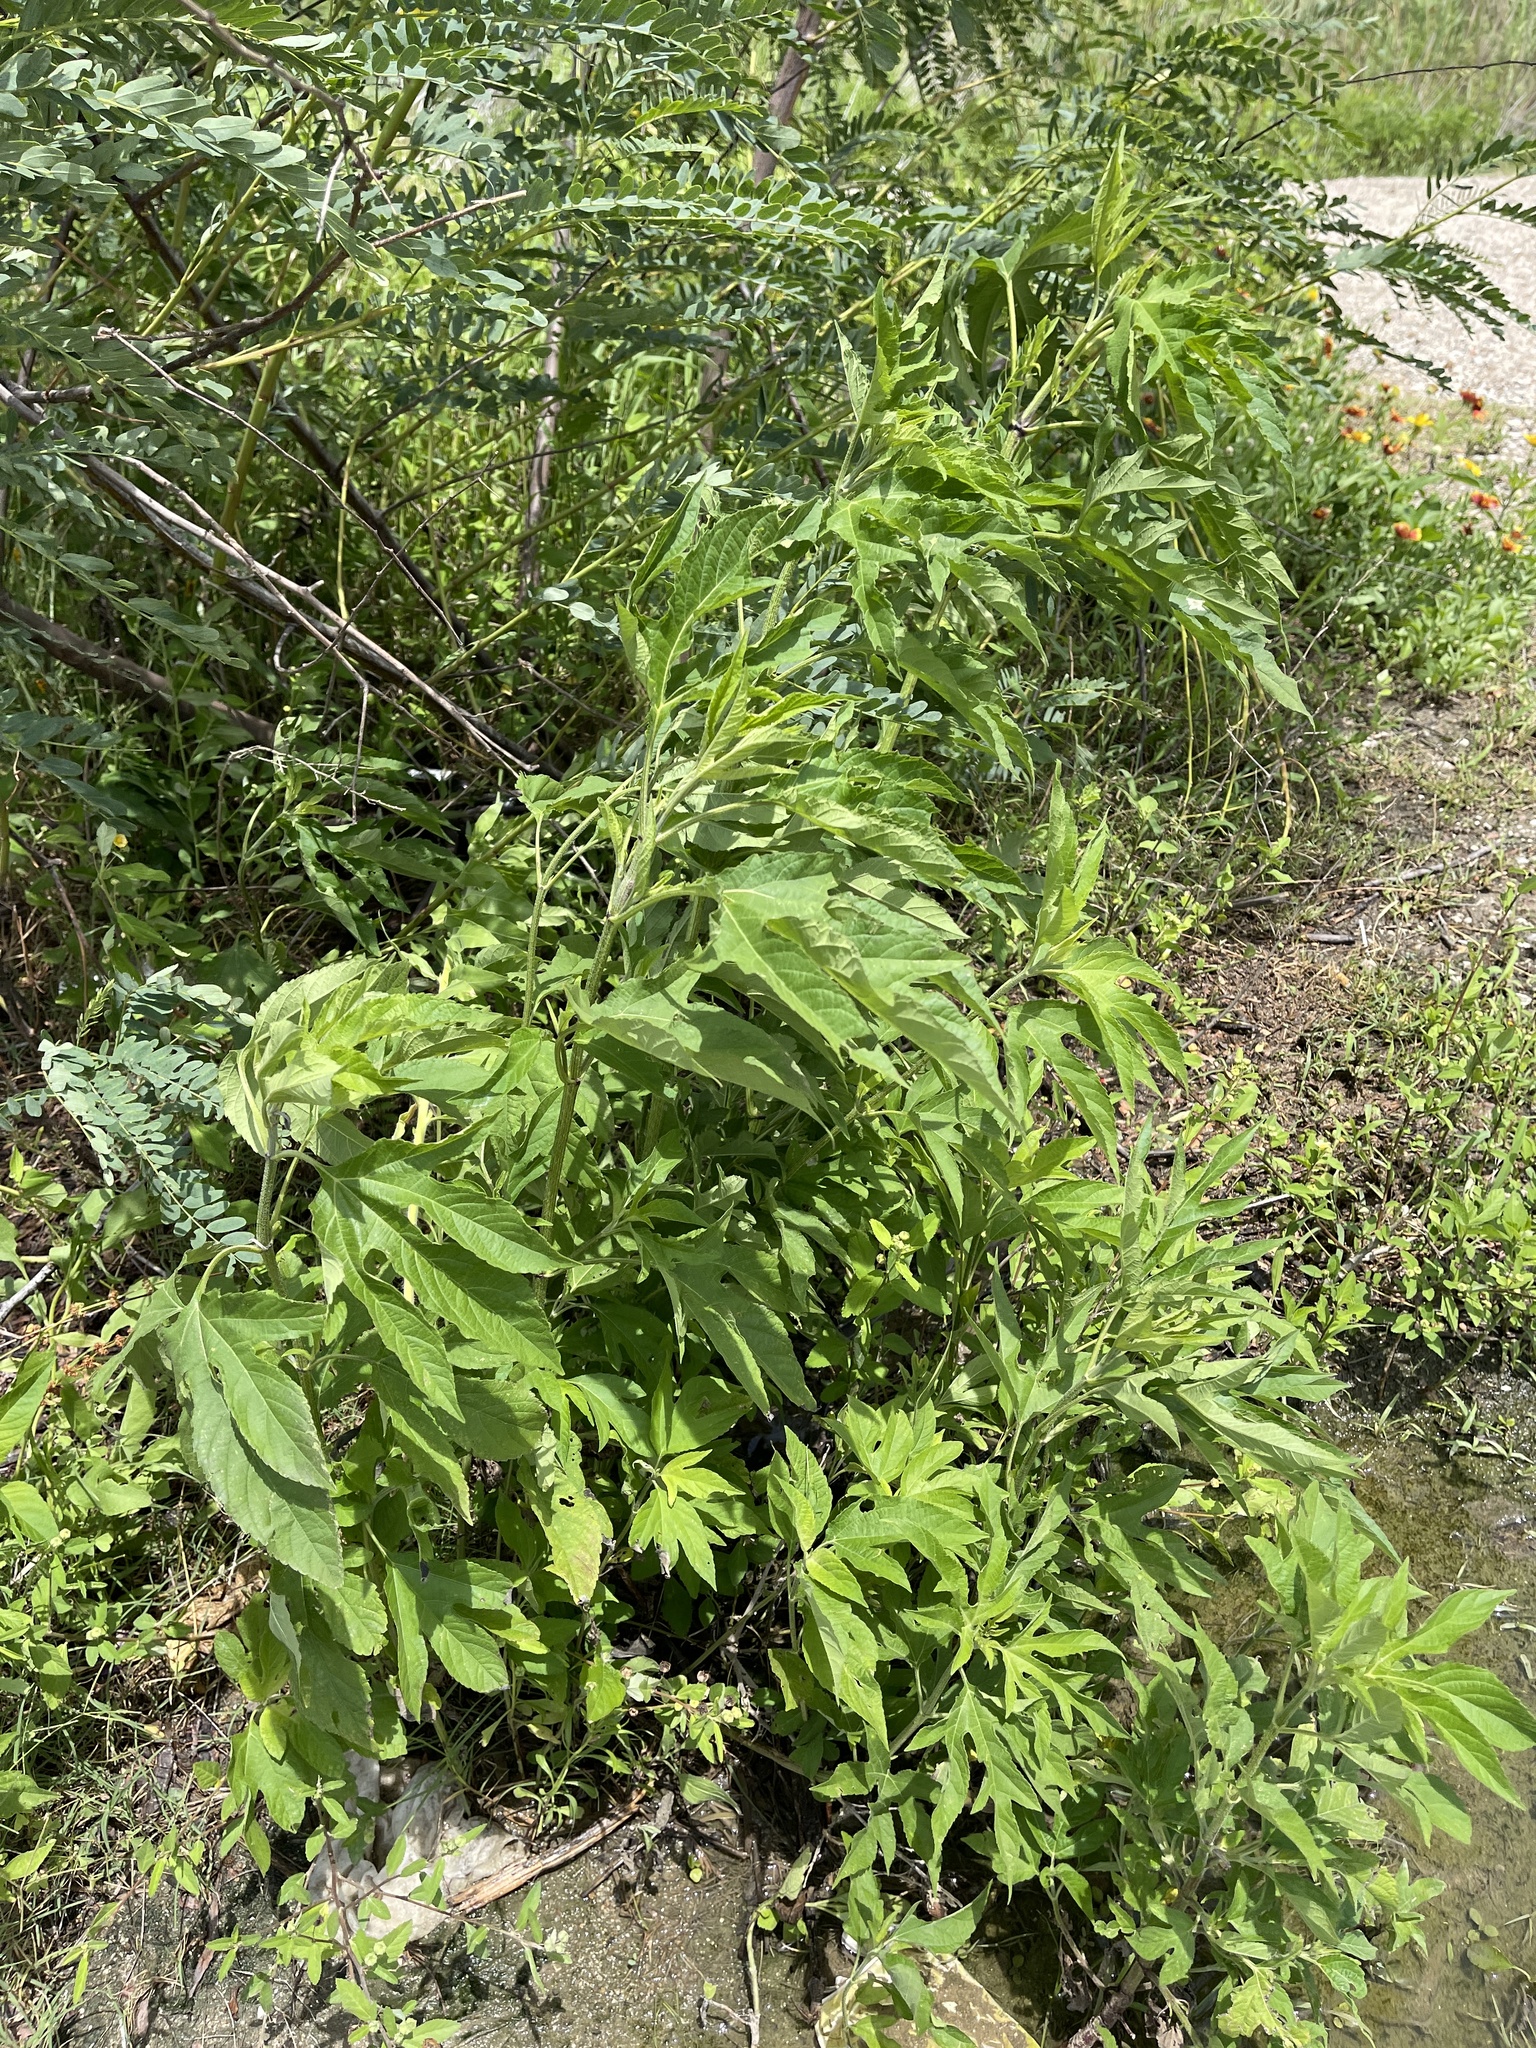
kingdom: Plantae
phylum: Tracheophyta
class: Magnoliopsida
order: Asterales
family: Asteraceae
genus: Ambrosia
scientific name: Ambrosia trifida
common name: Giant ragweed
